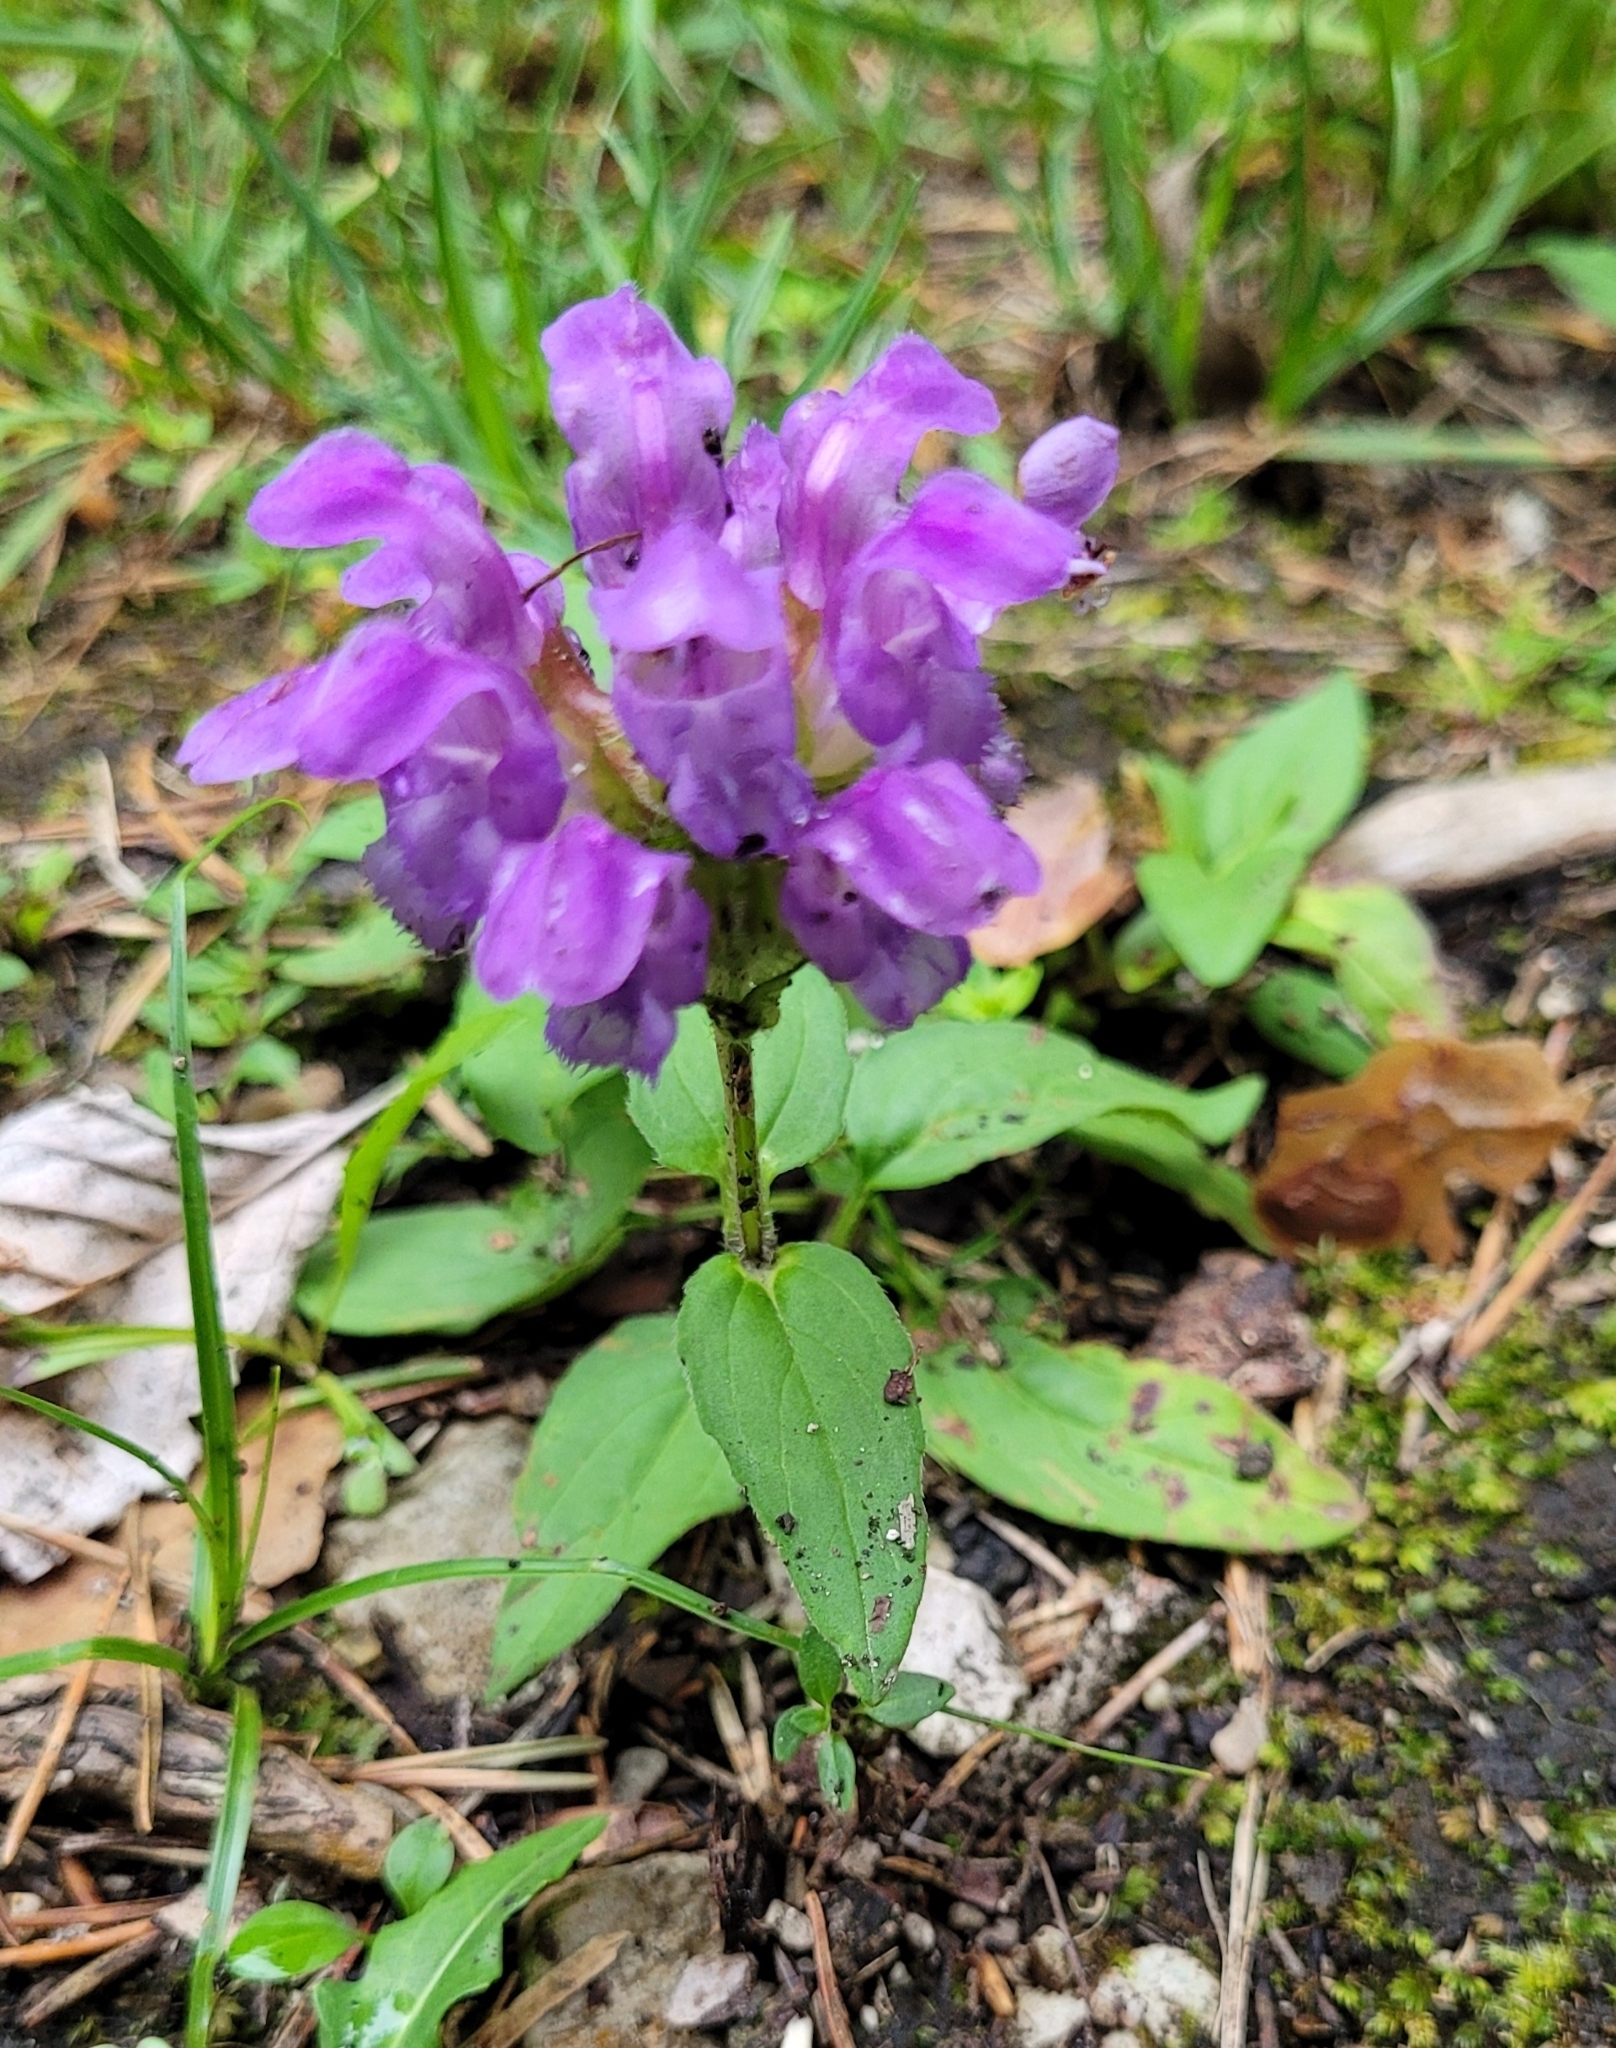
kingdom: Plantae
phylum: Tracheophyta
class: Magnoliopsida
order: Lamiales
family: Lamiaceae
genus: Prunella
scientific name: Prunella grandiflora
